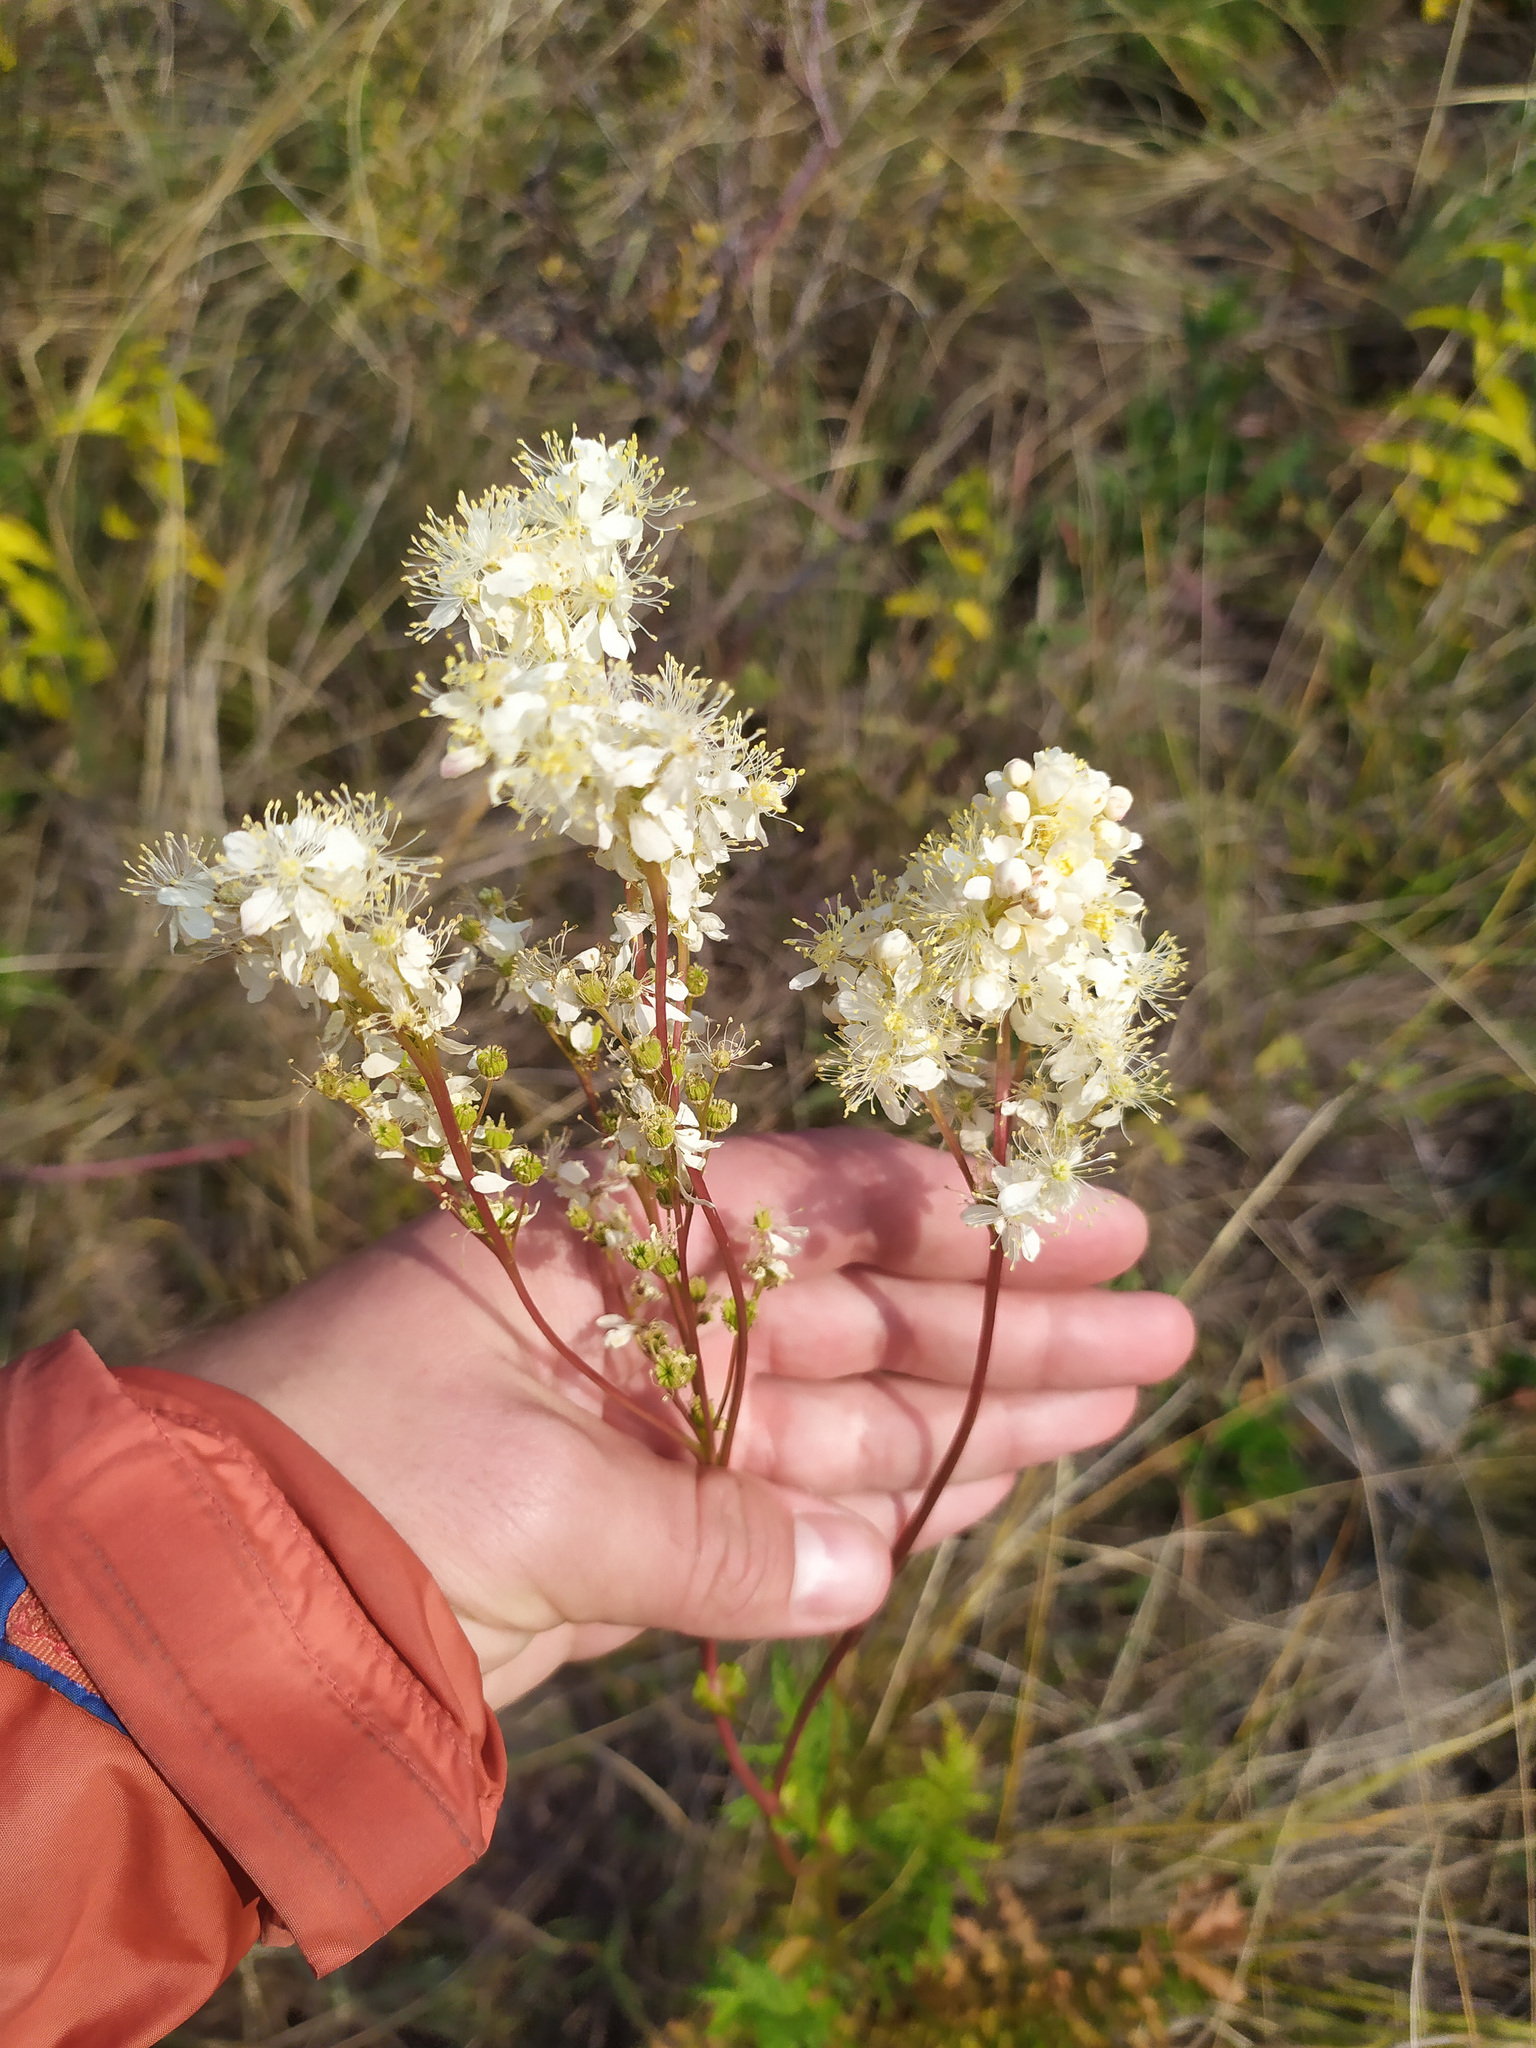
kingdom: Plantae
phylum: Tracheophyta
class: Magnoliopsida
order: Rosales
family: Rosaceae
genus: Filipendula
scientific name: Filipendula vulgaris
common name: Dropwort
